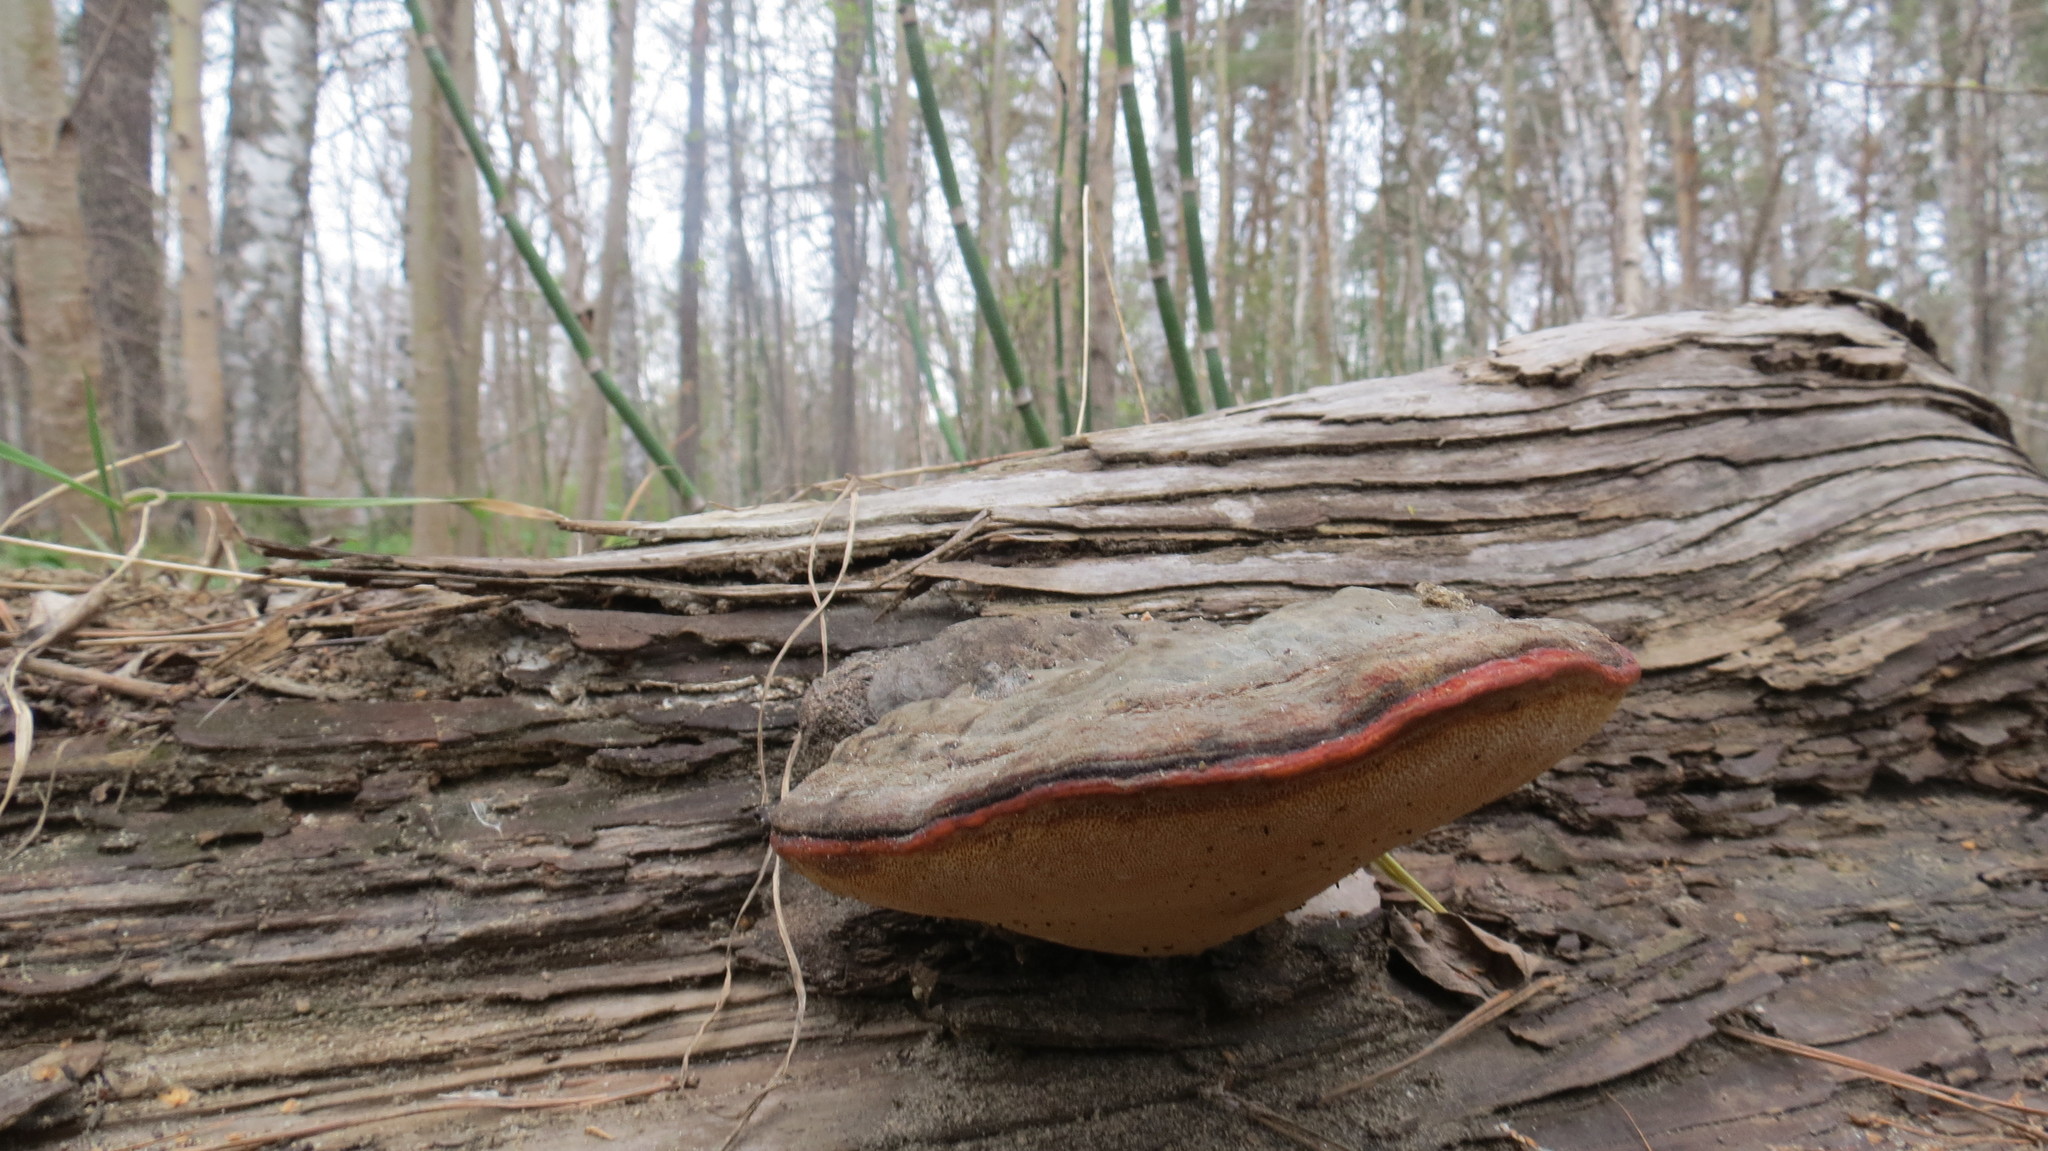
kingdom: Fungi
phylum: Basidiomycota
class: Agaricomycetes
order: Polyporales
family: Fomitopsidaceae
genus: Fomitopsis
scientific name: Fomitopsis pinicola
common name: Red-belted bracket
